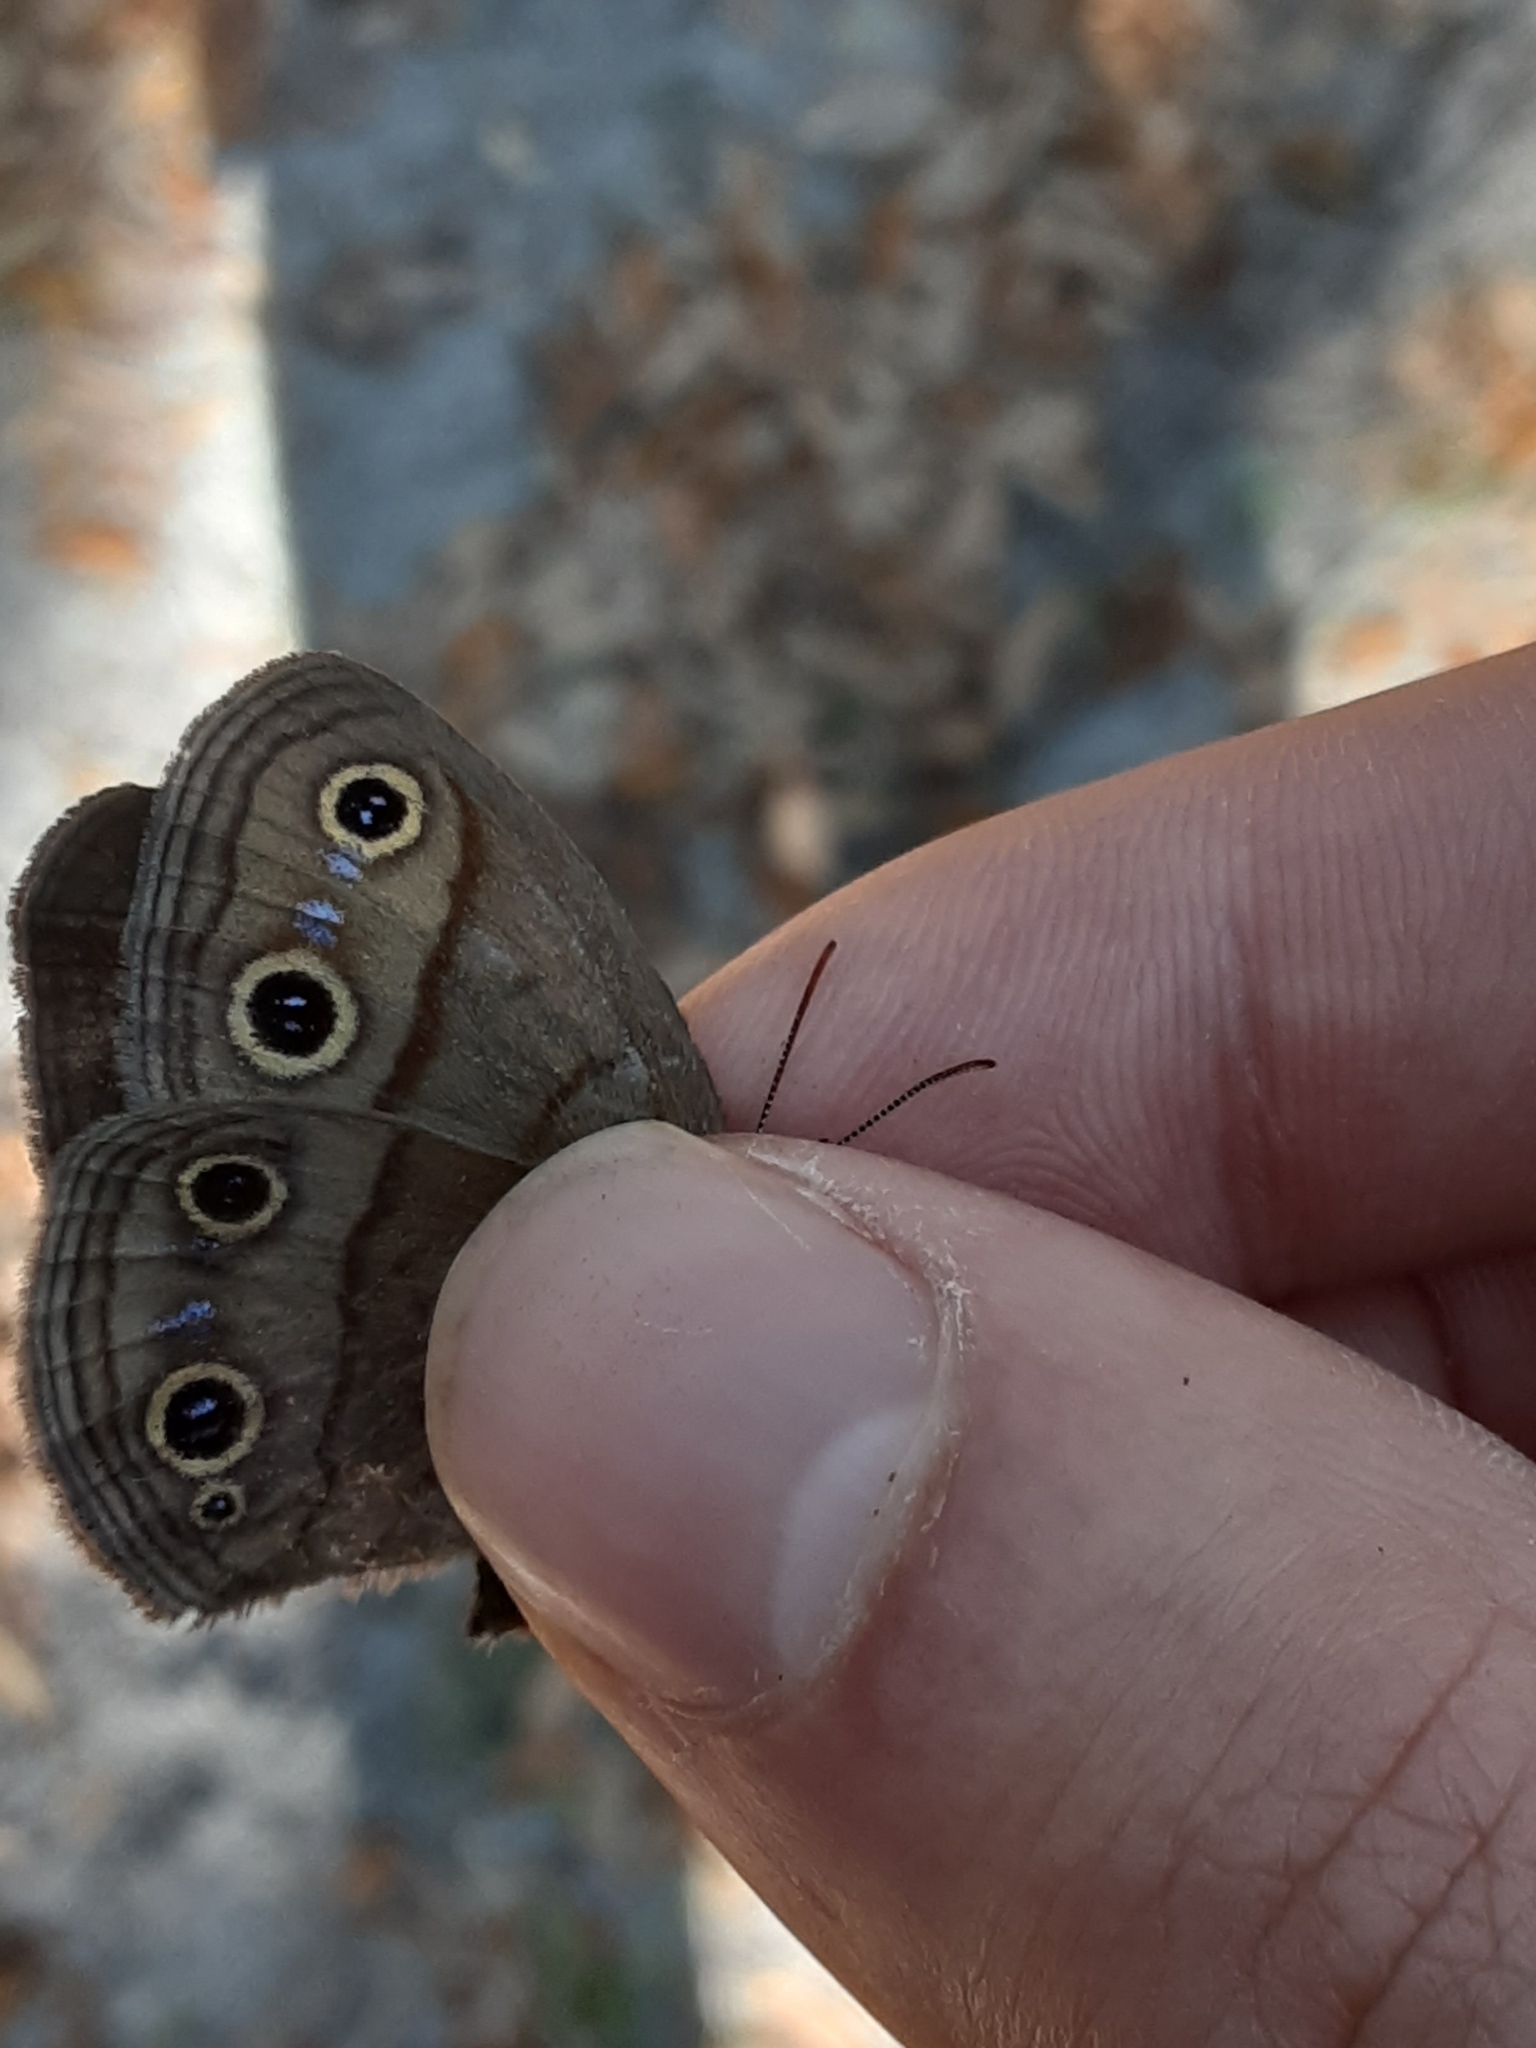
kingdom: Animalia
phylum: Arthropoda
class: Insecta
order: Lepidoptera
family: Nymphalidae
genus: Euptychia
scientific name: Euptychia cymela
